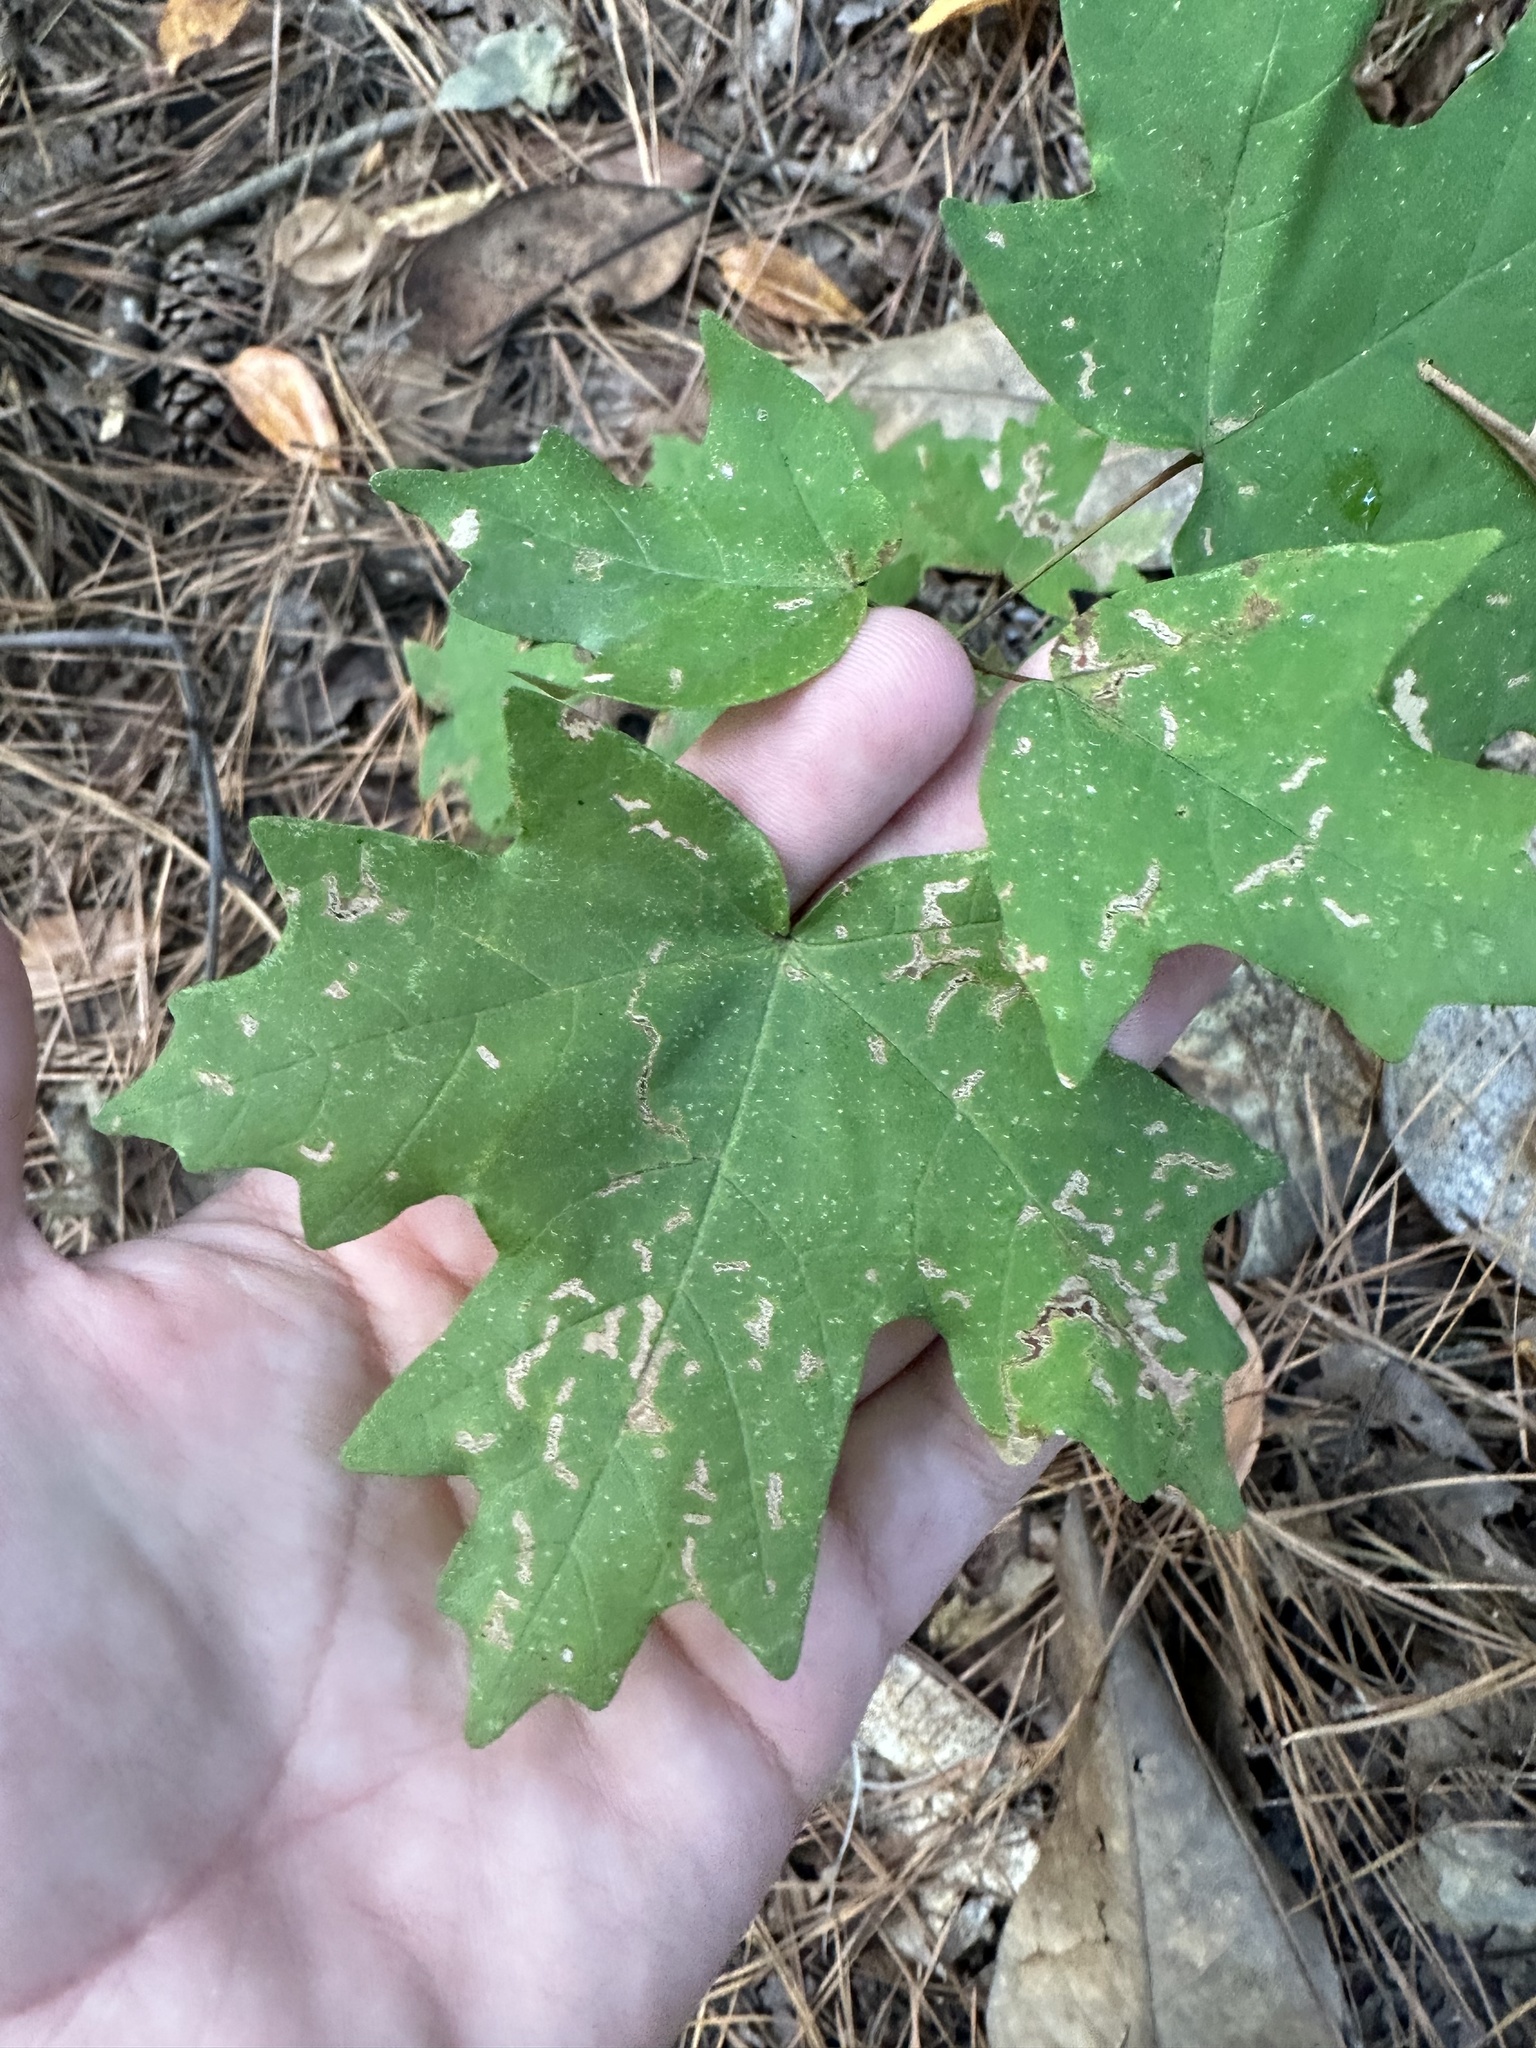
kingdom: Plantae
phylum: Tracheophyta
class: Magnoliopsida
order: Sapindales
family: Sapindaceae
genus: Acer
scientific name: Acer floridanum
